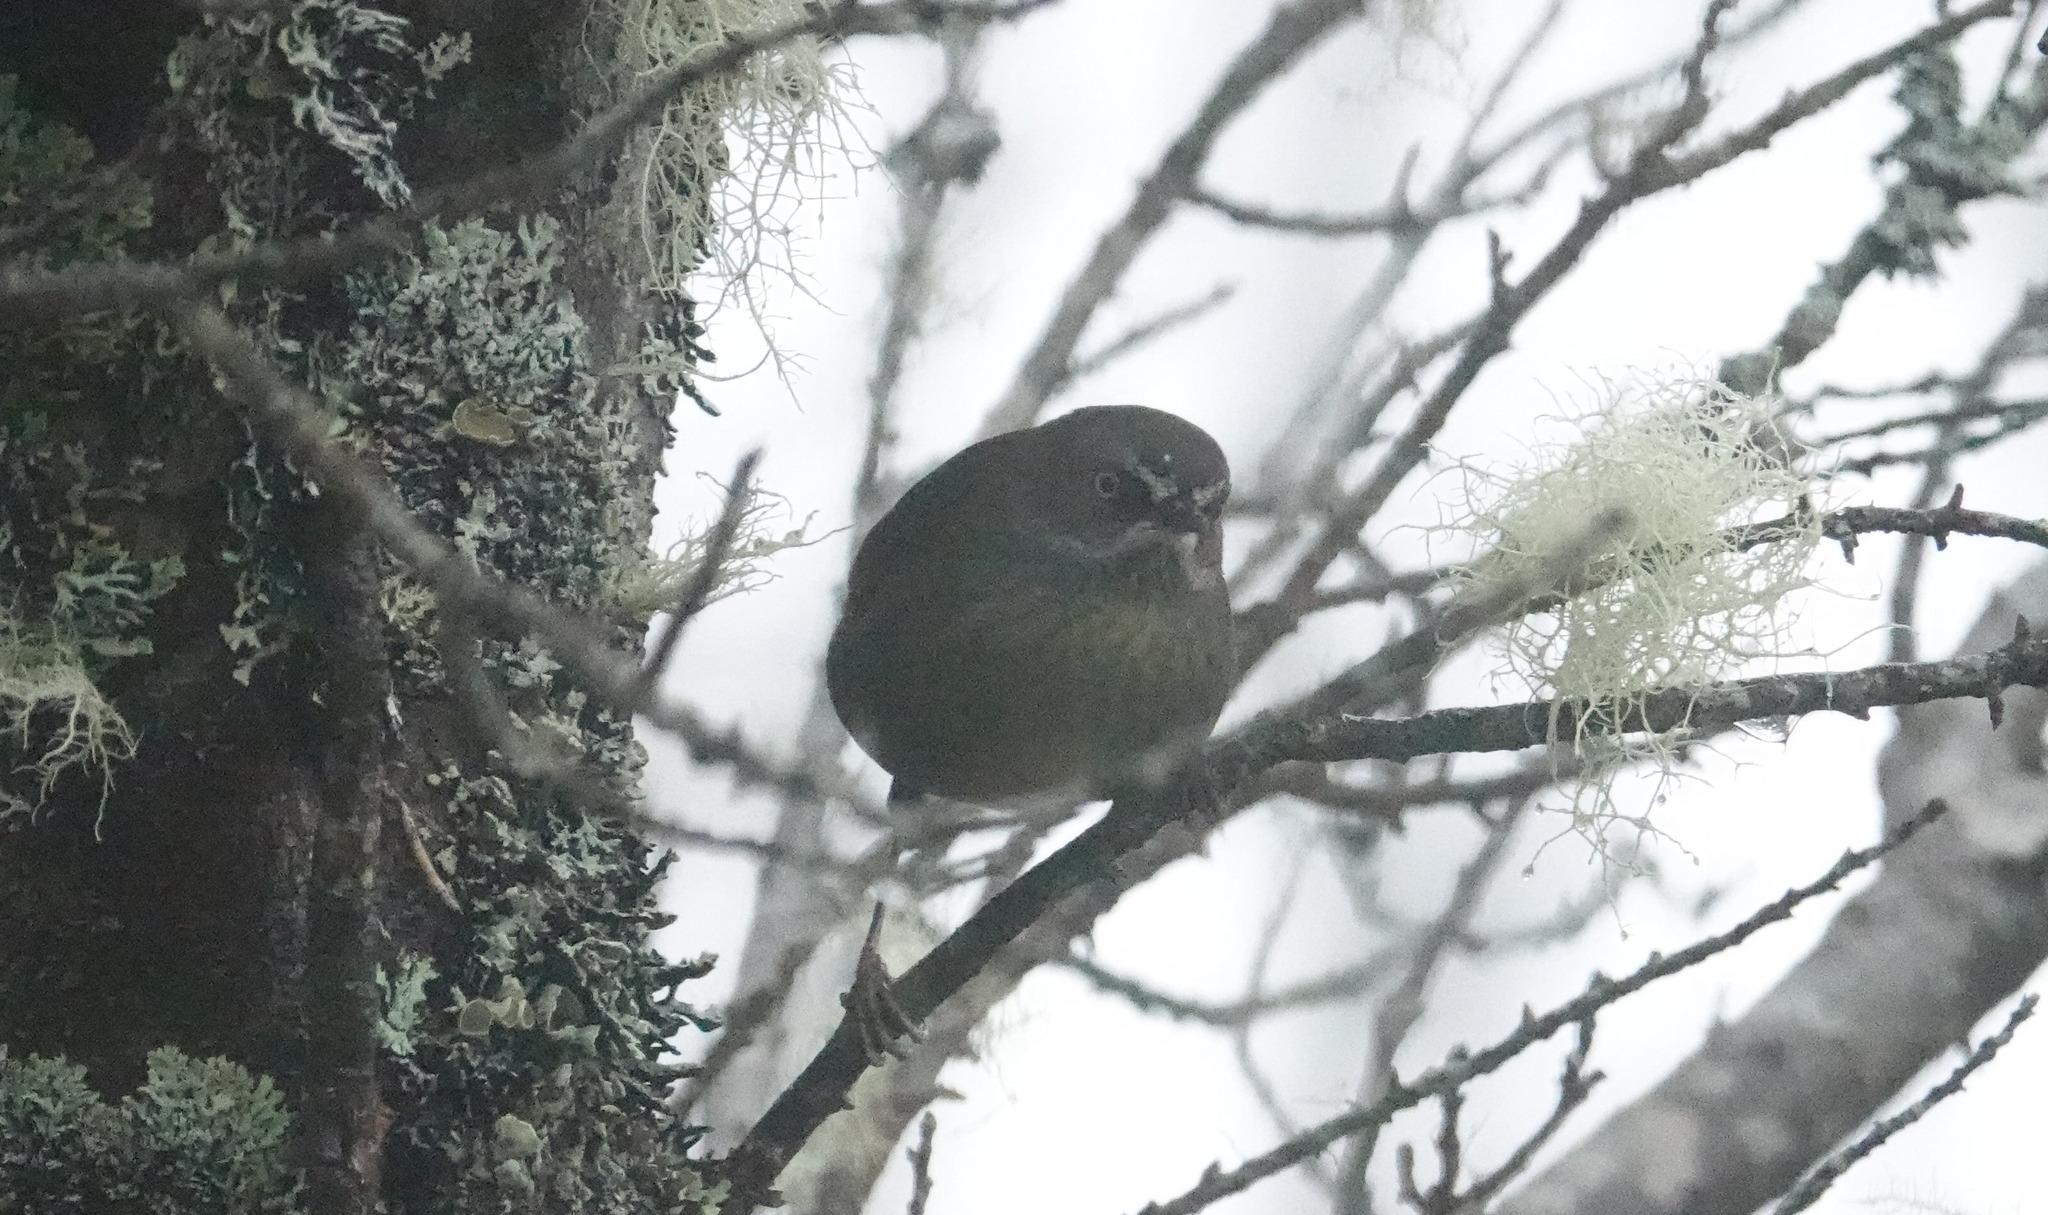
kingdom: Animalia
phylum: Chordata
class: Aves
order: Passeriformes
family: Acanthizidae
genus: Sericornis
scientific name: Sericornis humilis
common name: Tasmanian scrubwren
